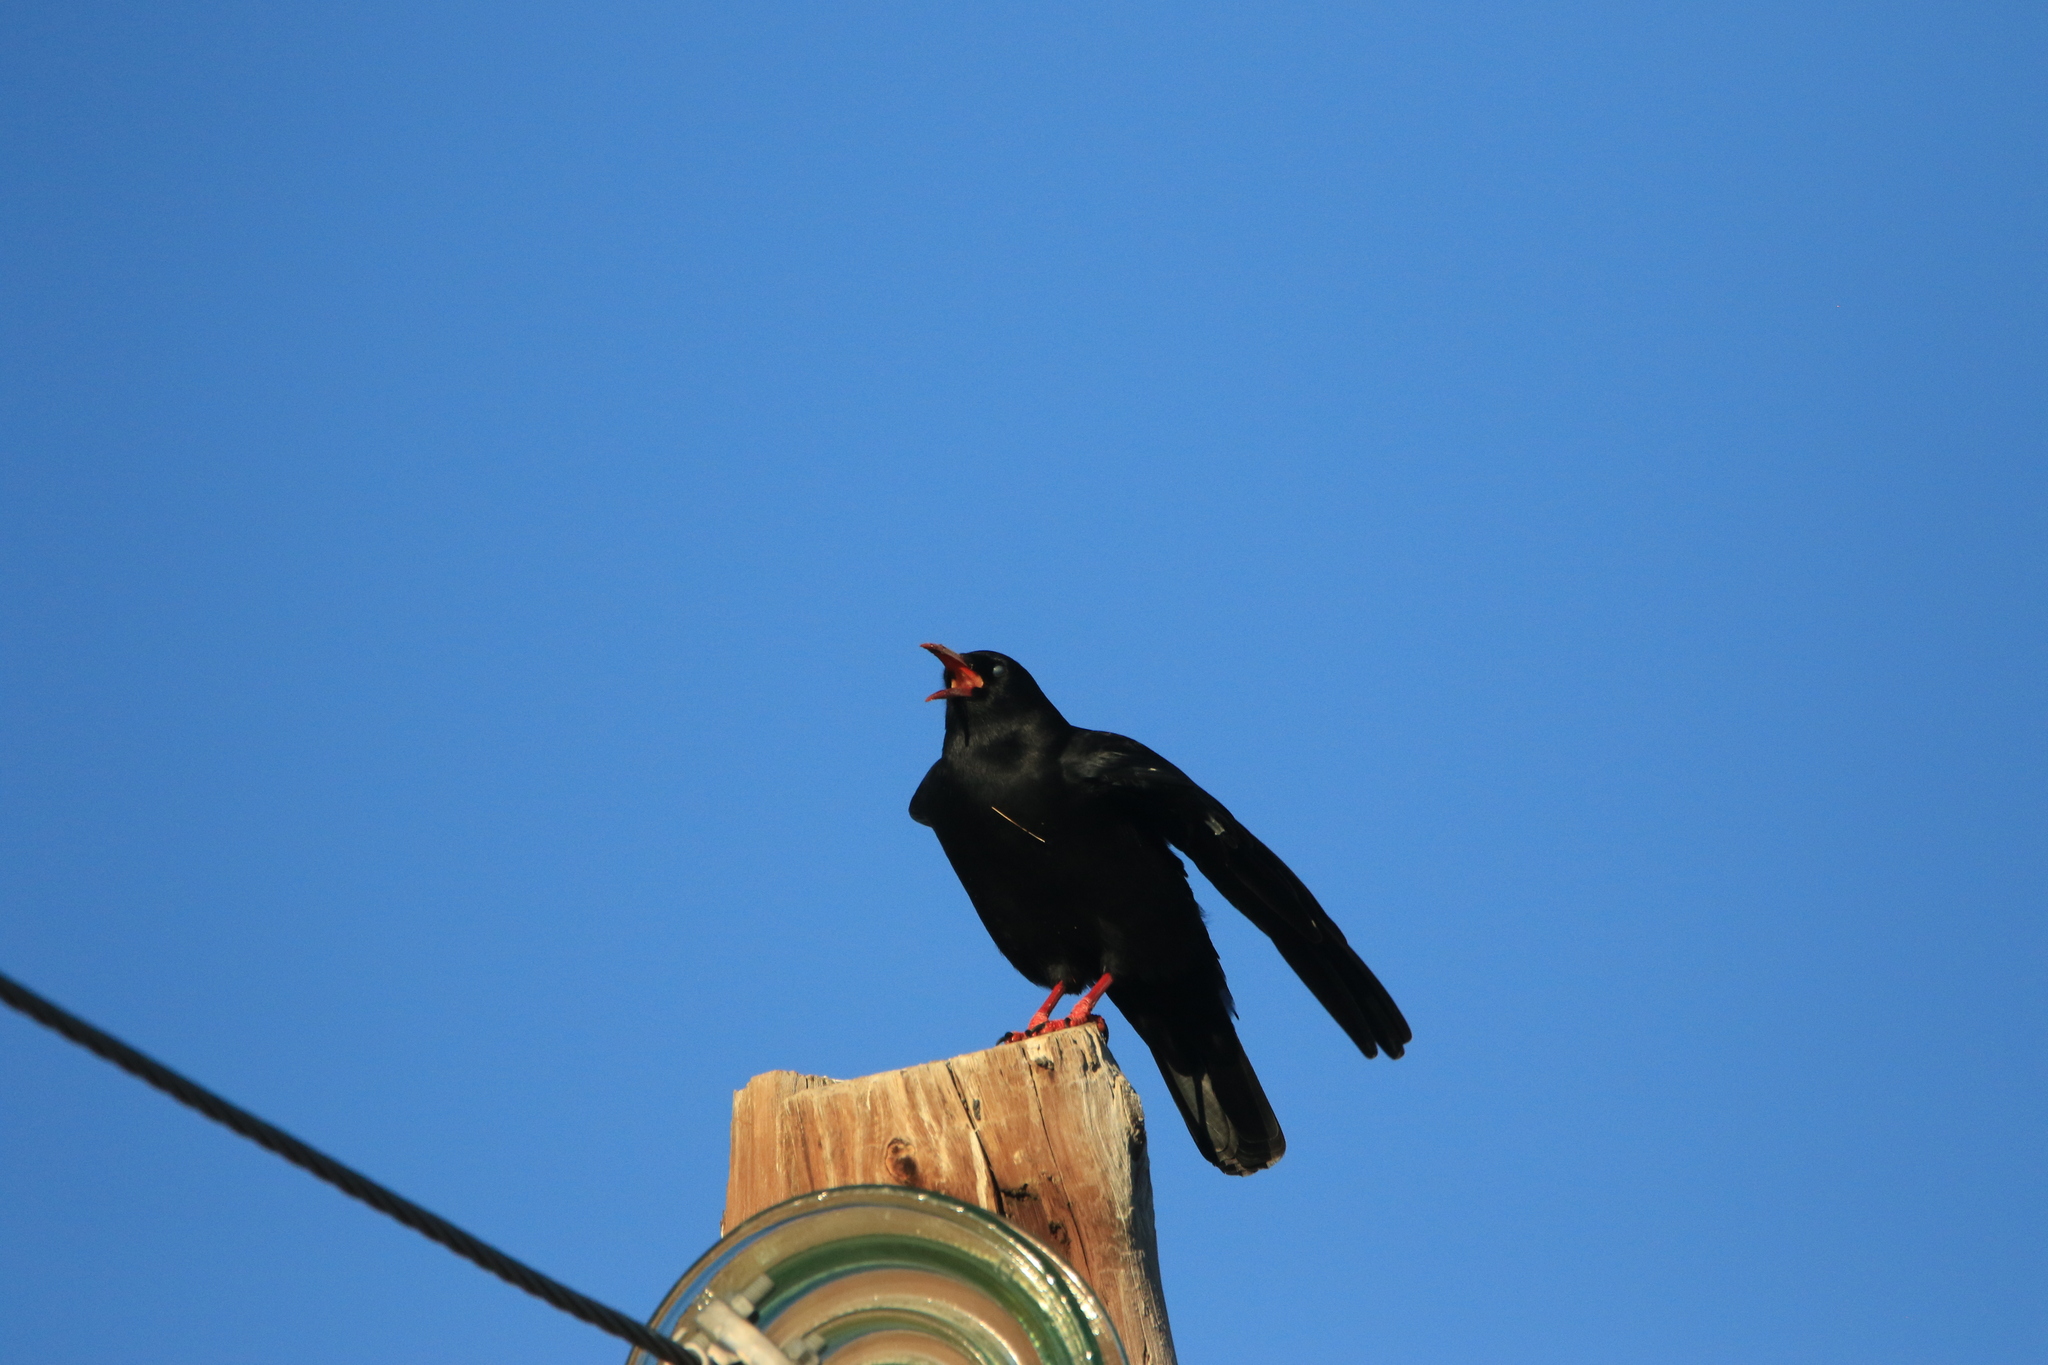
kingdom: Animalia
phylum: Chordata
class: Aves
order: Passeriformes
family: Corvidae
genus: Pyrrhocorax
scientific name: Pyrrhocorax pyrrhocorax
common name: Red-billed chough
